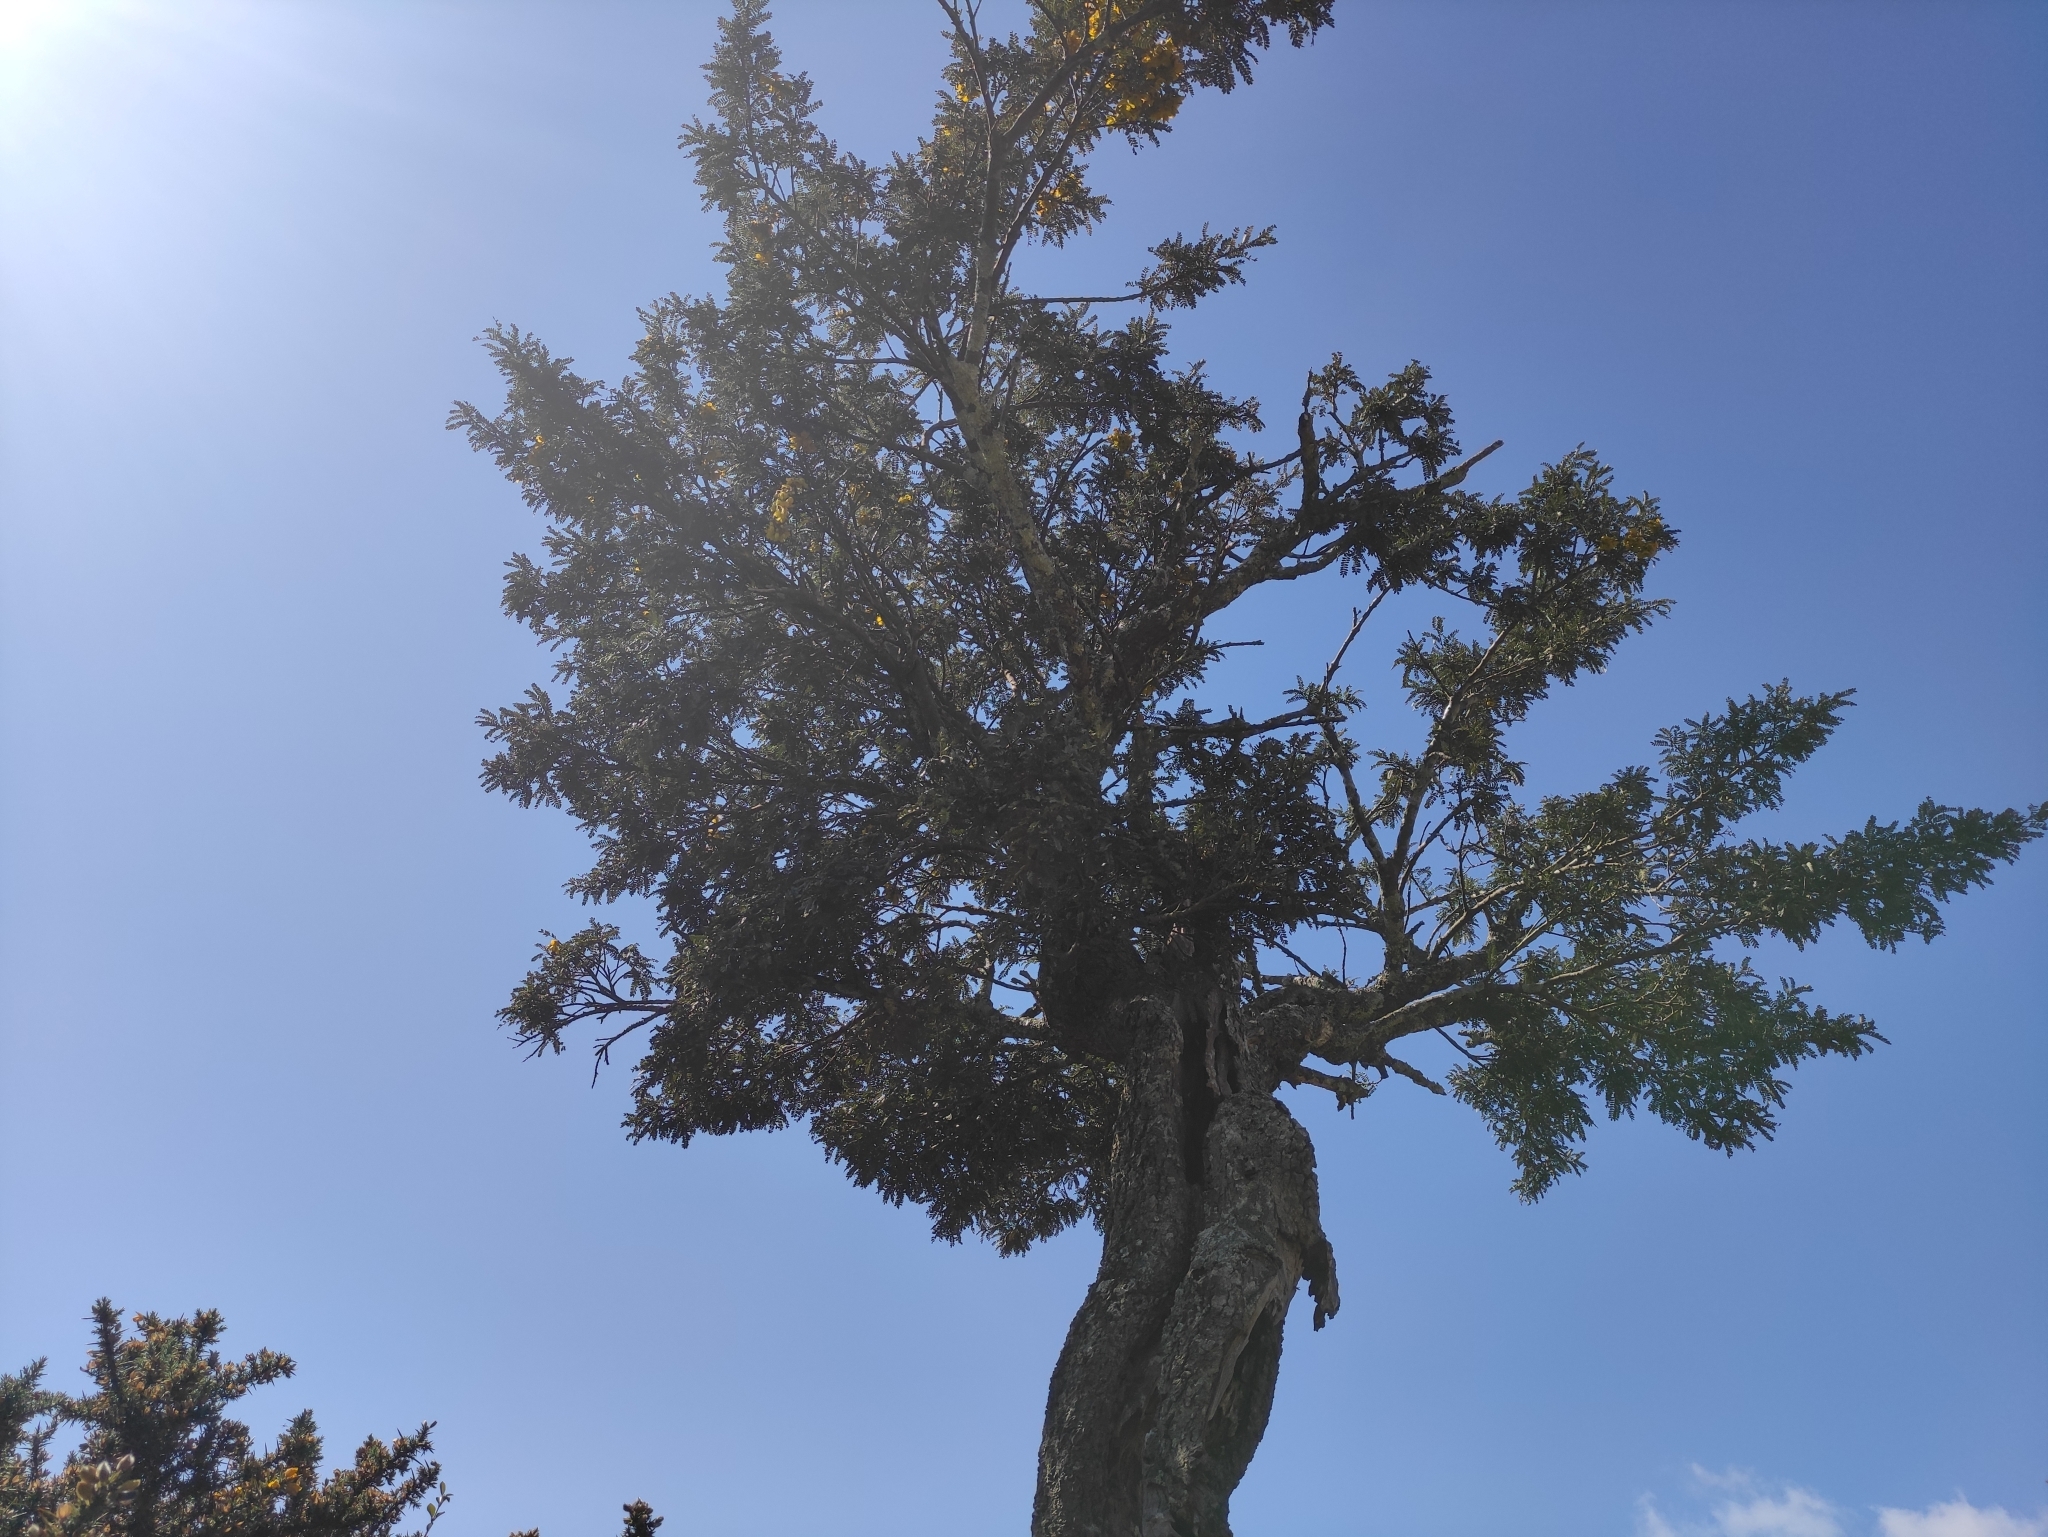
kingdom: Plantae
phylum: Tracheophyta
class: Magnoliopsida
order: Fabales
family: Fabaceae
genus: Sophora
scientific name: Sophora denudata
